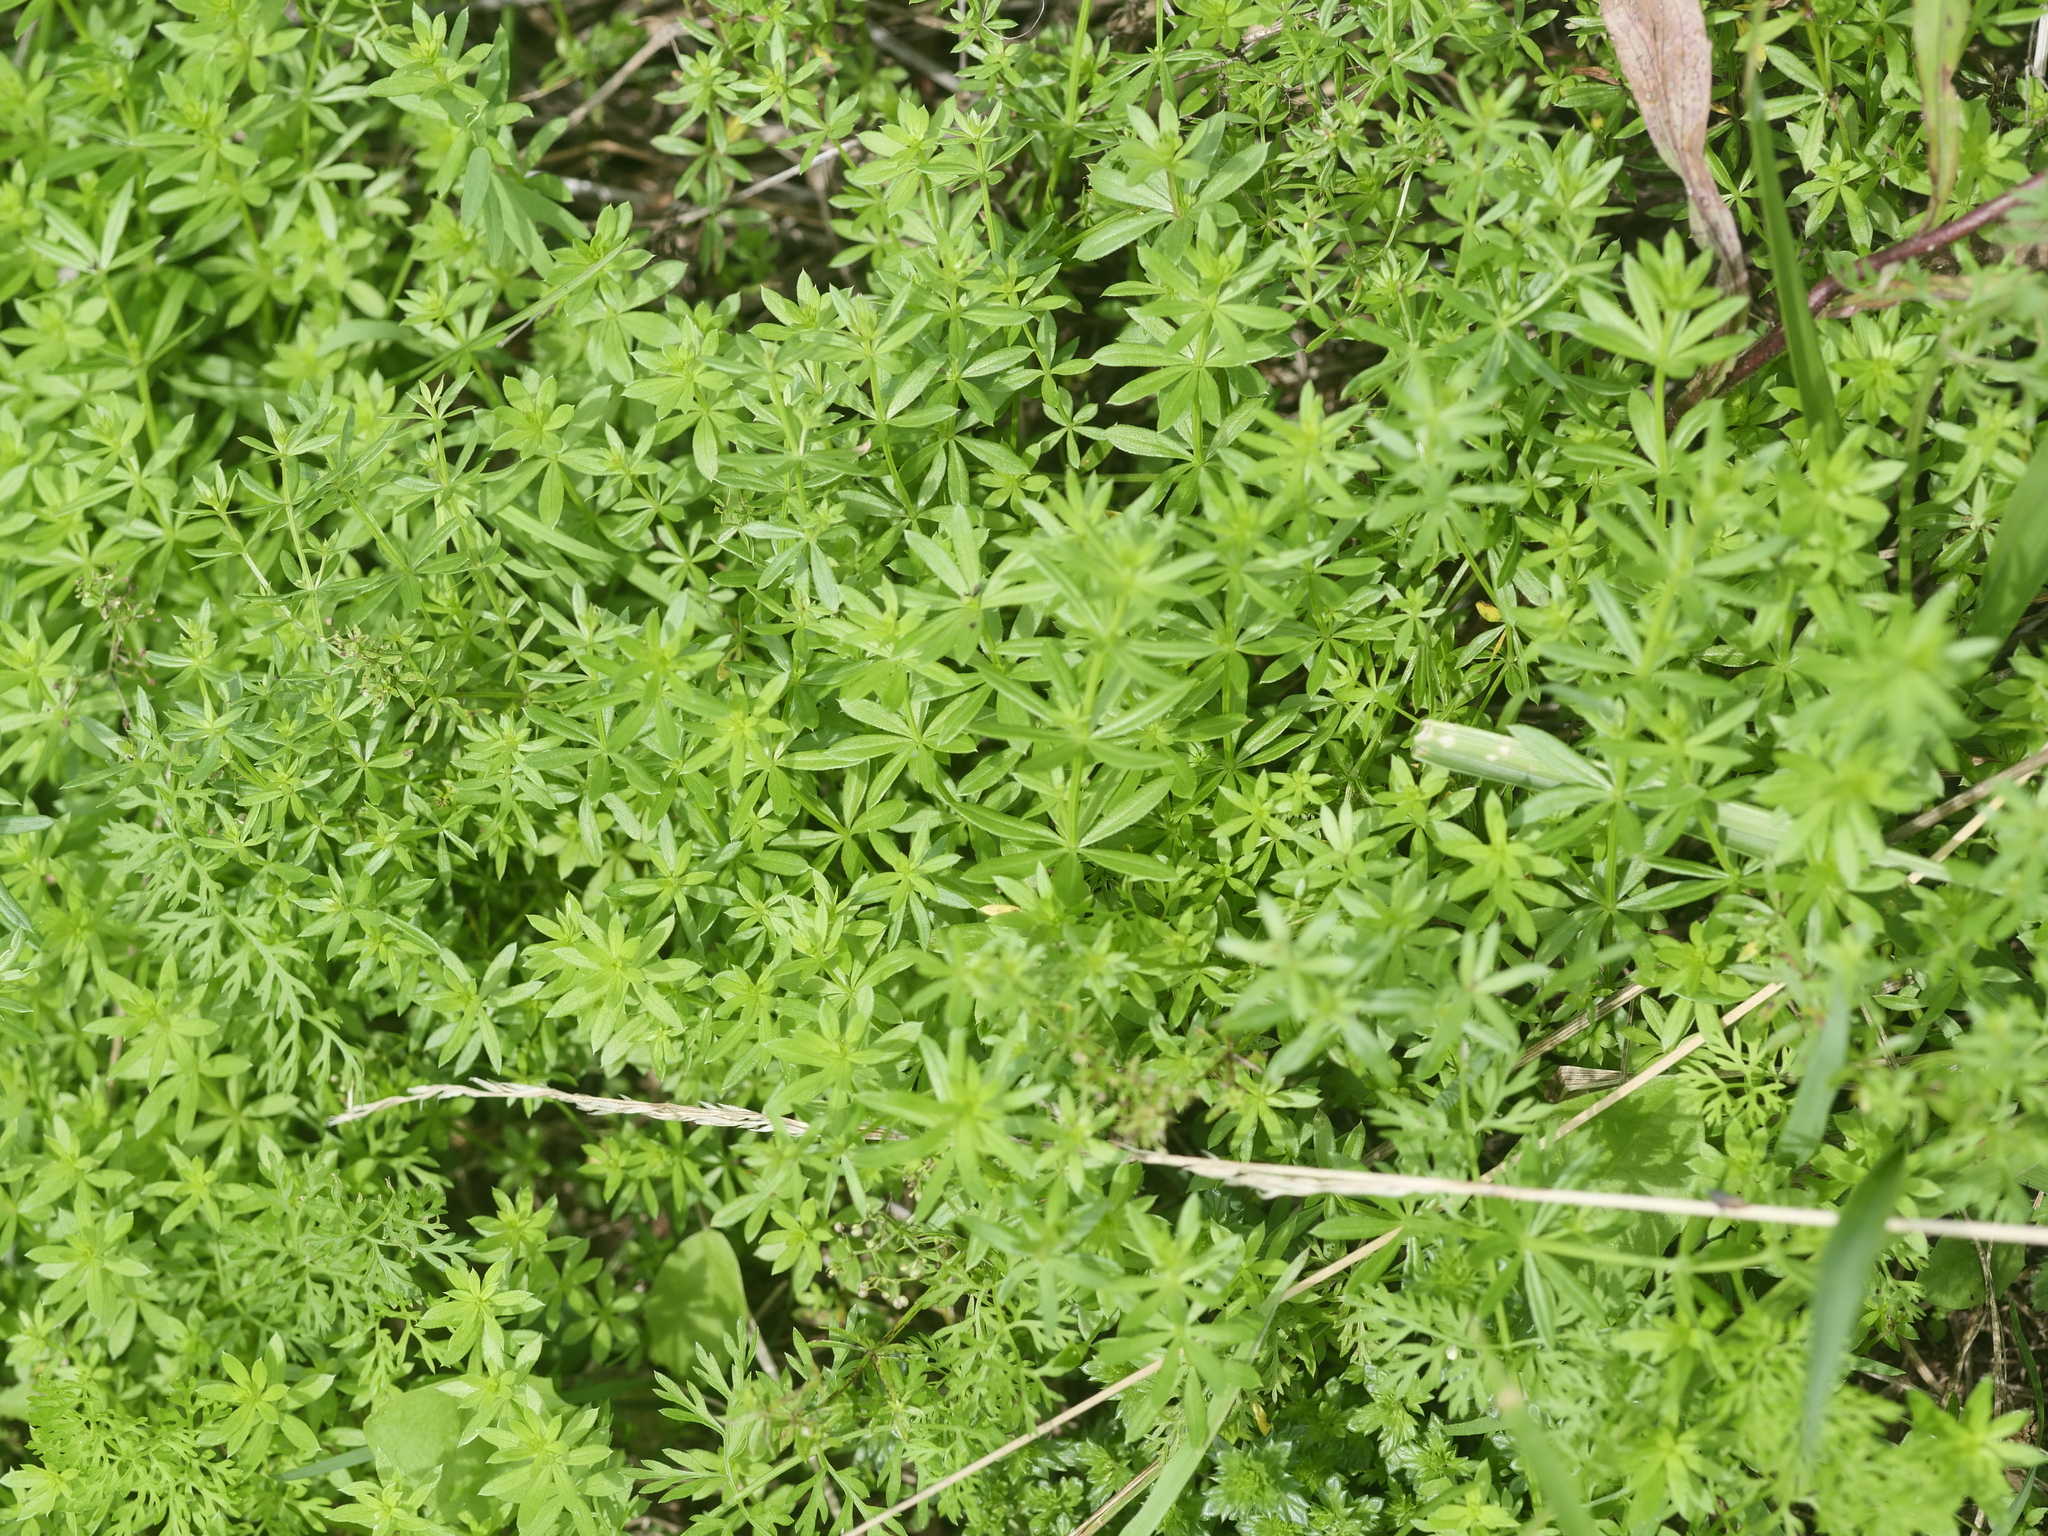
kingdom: Plantae
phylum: Tracheophyta
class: Magnoliopsida
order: Gentianales
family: Rubiaceae
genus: Galium
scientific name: Galium mollugo
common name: Hedge bedstraw
